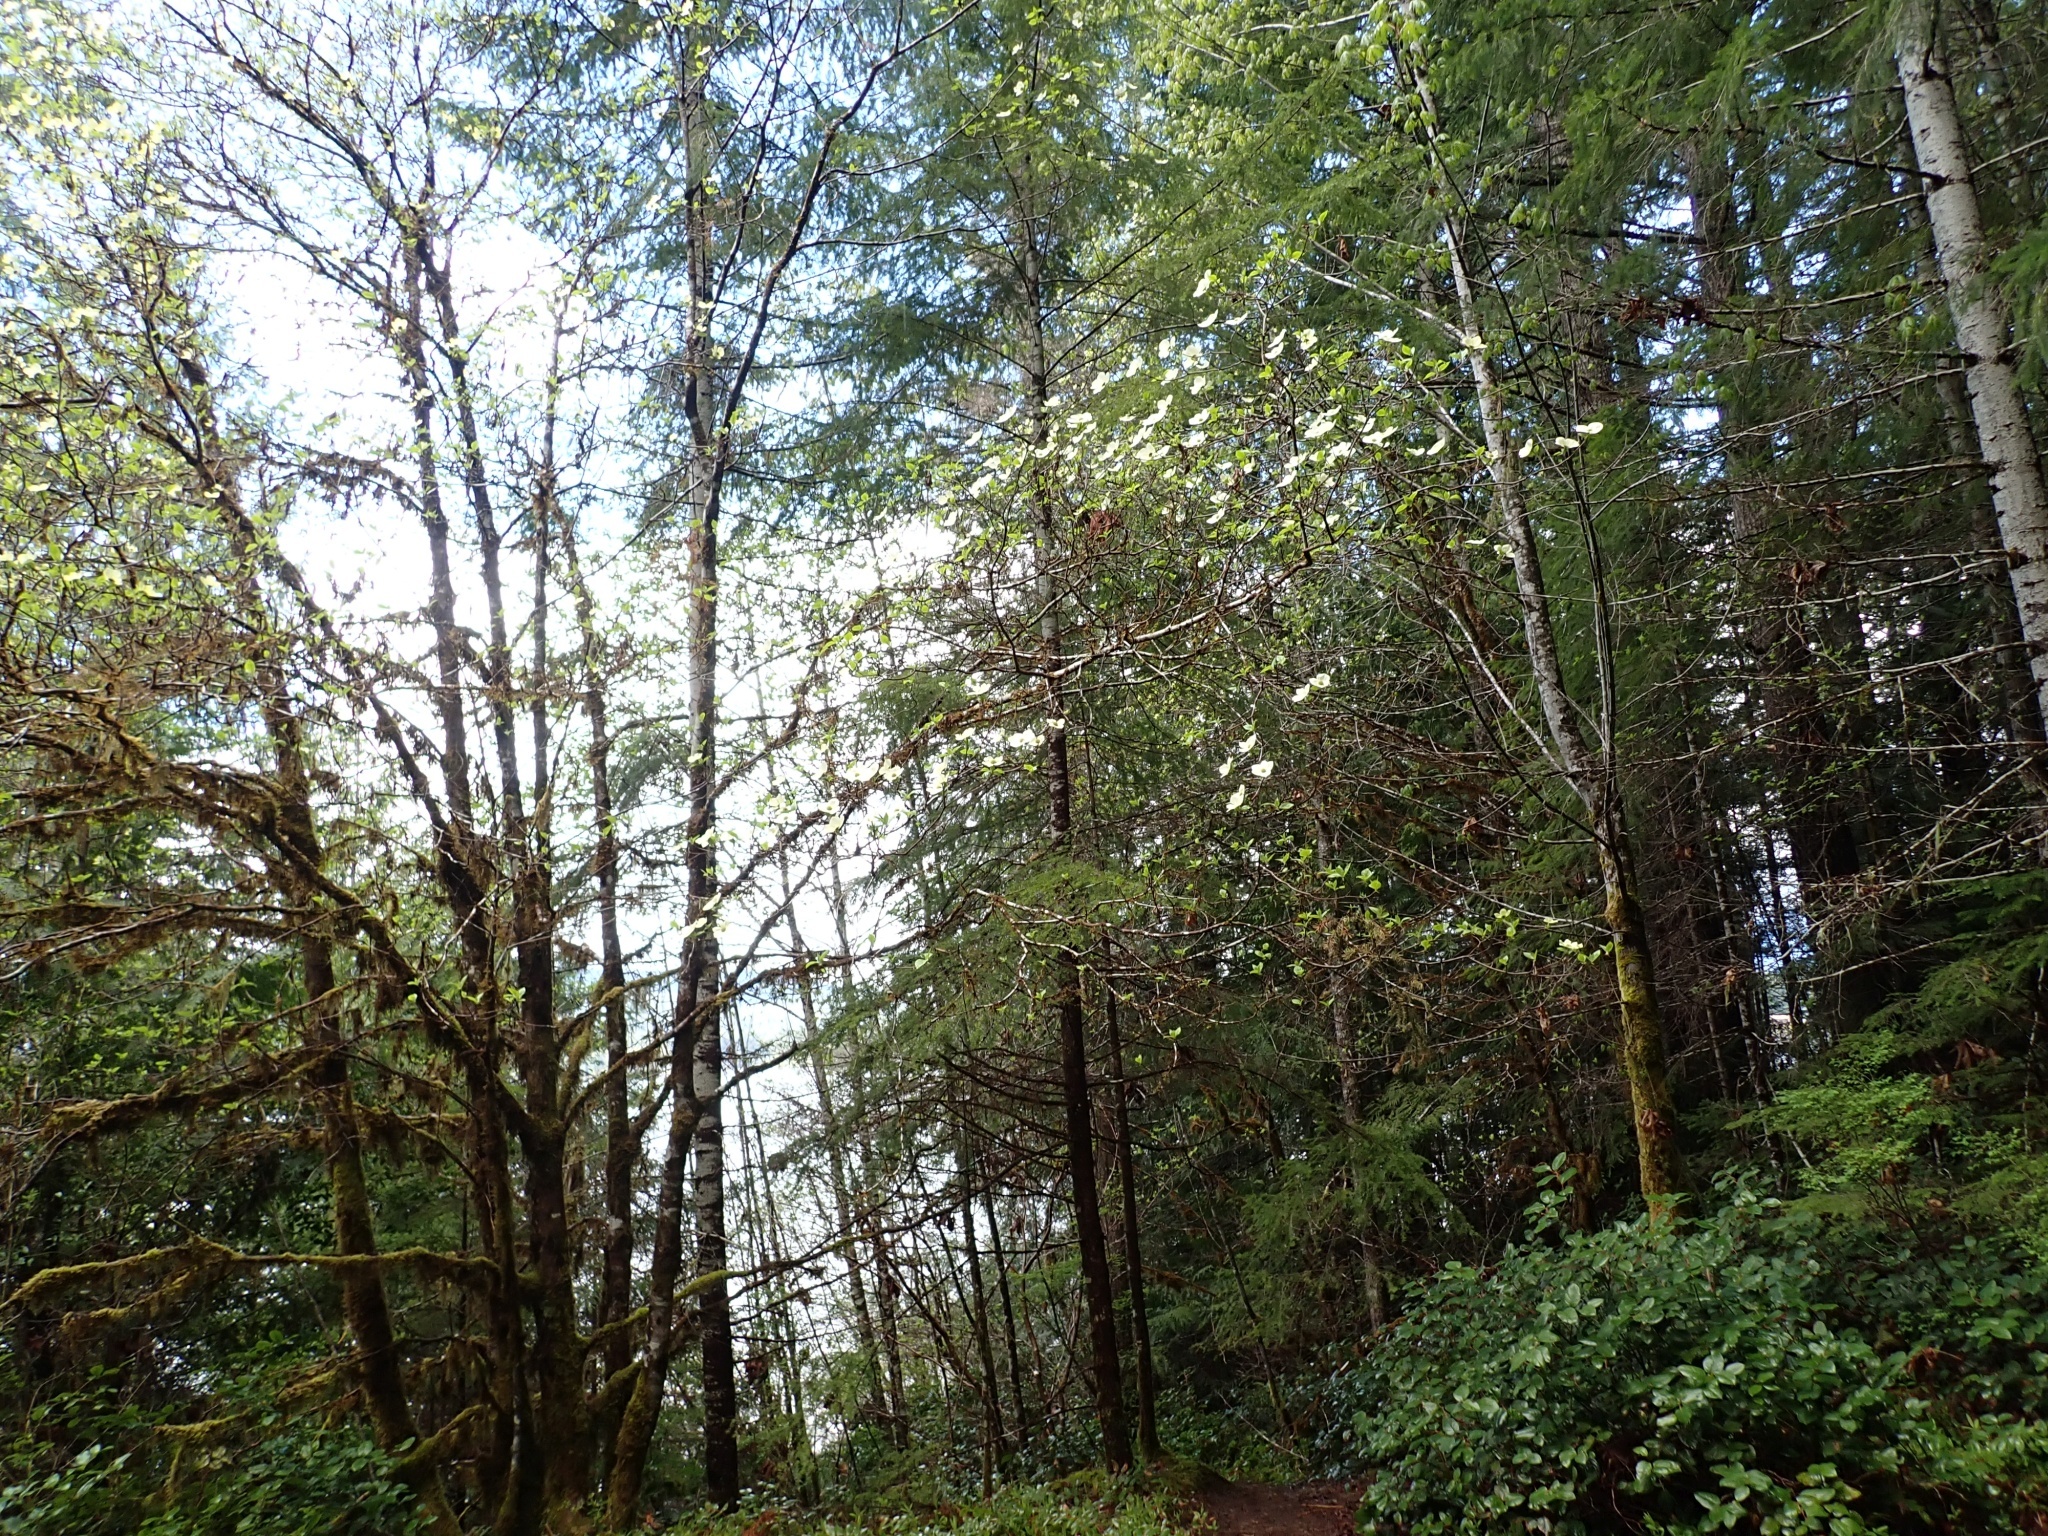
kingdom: Plantae
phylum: Tracheophyta
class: Magnoliopsida
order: Cornales
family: Cornaceae
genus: Cornus
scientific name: Cornus nuttallii
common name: Pacific dogwood
